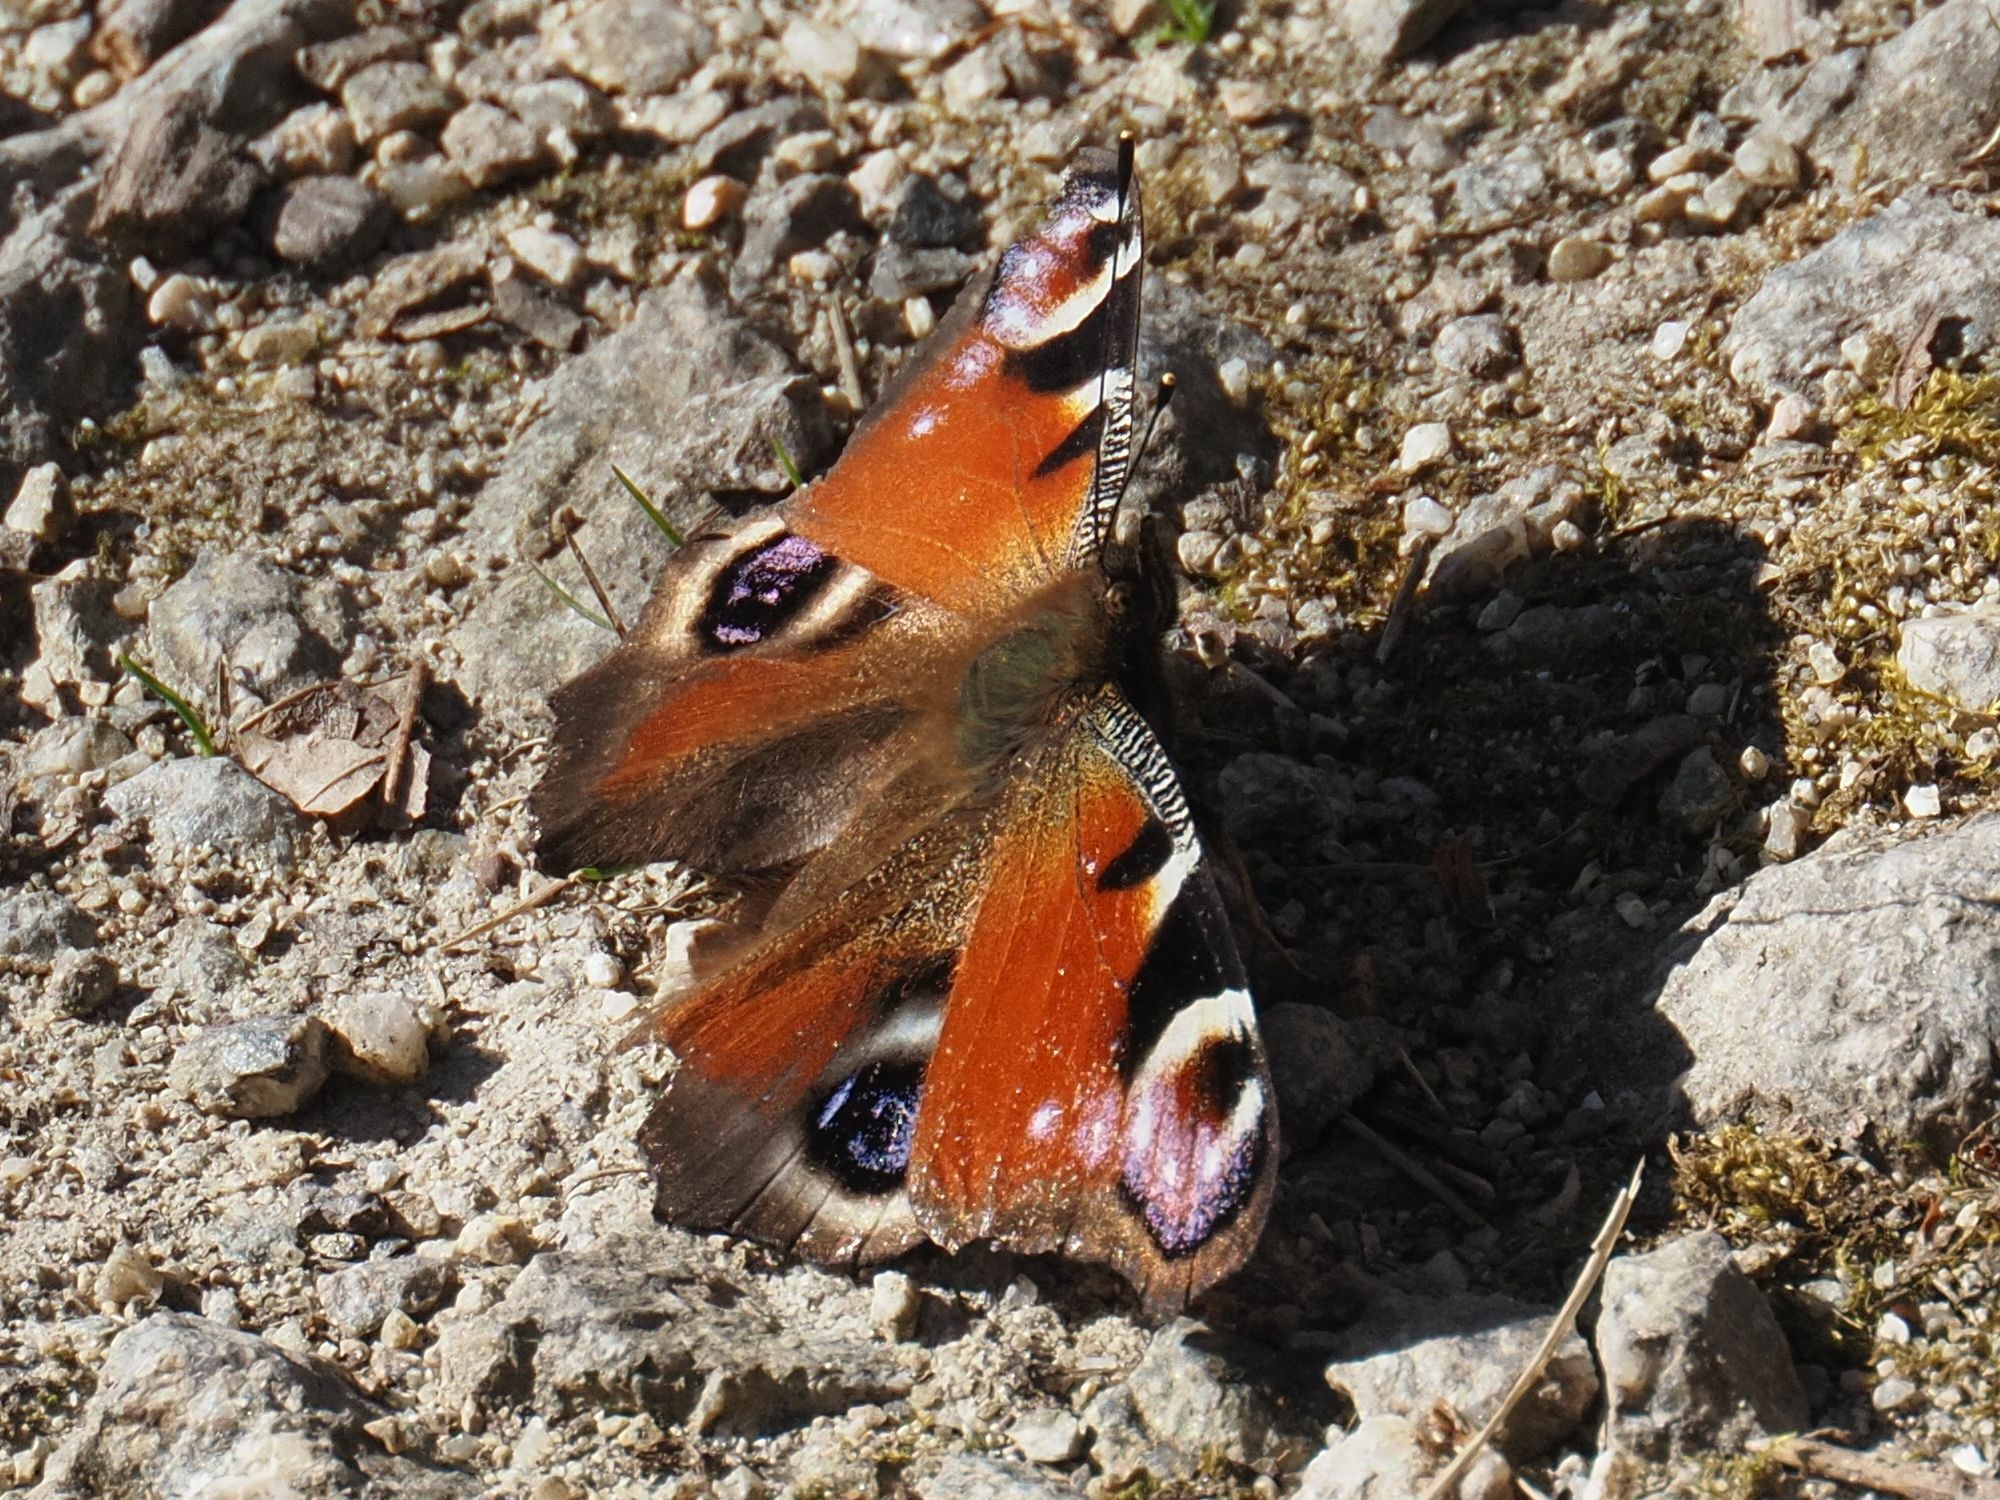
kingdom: Animalia
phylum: Arthropoda
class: Insecta
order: Lepidoptera
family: Nymphalidae
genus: Aglais
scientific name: Aglais io
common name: Peacock
